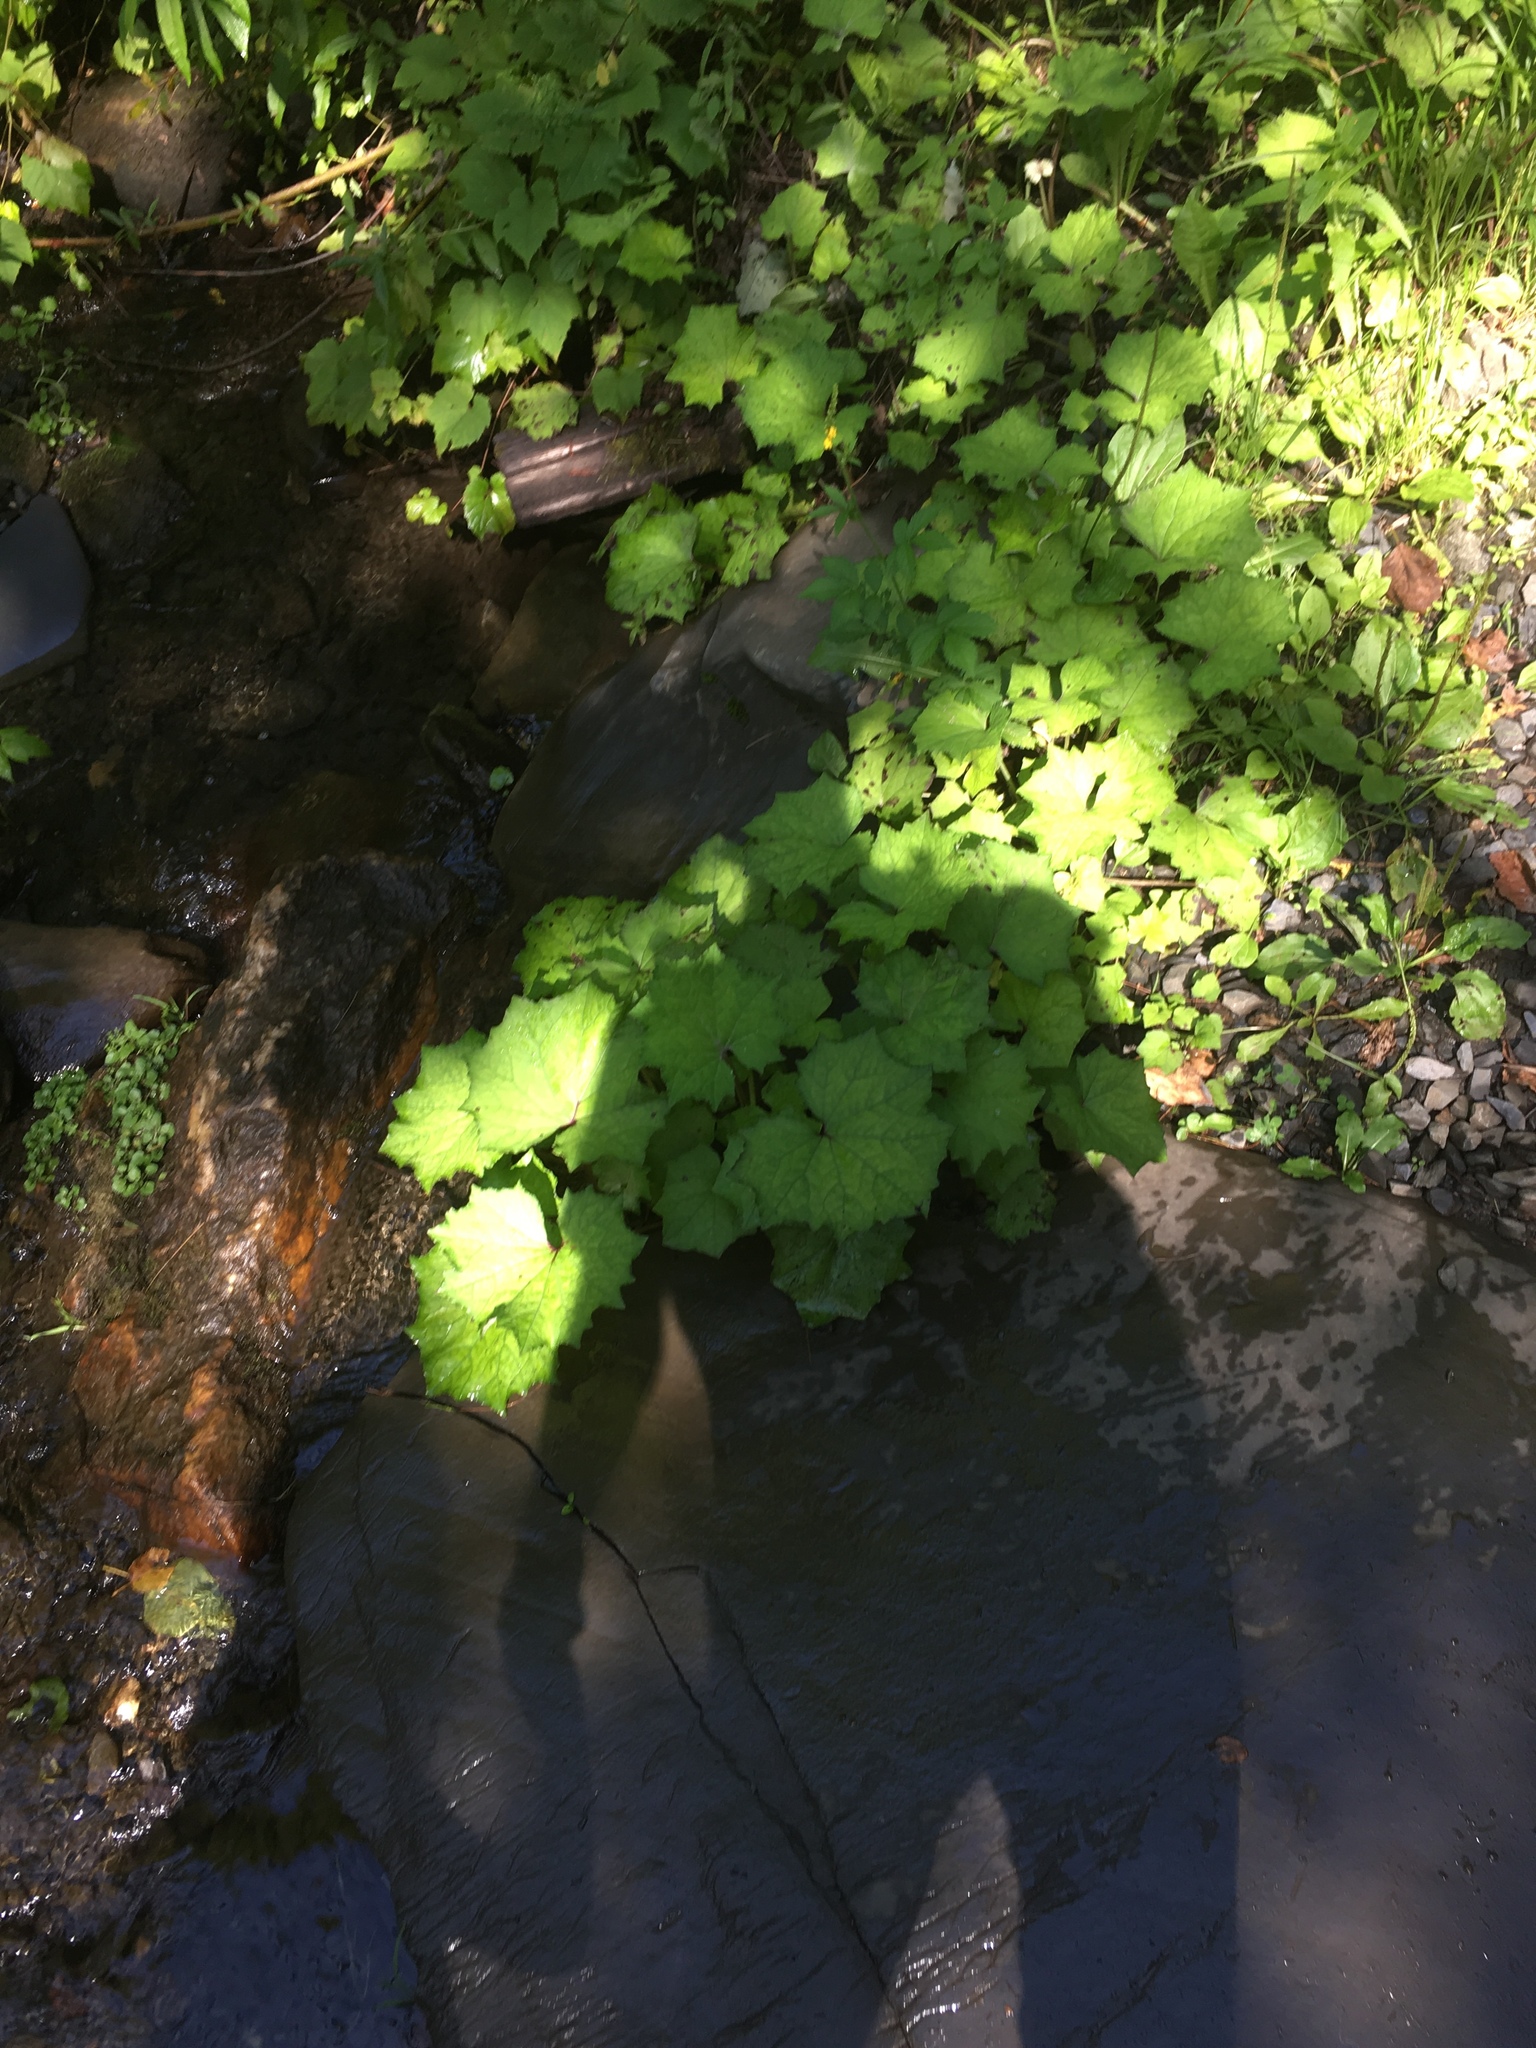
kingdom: Plantae
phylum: Tracheophyta
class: Magnoliopsida
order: Asterales
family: Asteraceae
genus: Tussilago
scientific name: Tussilago farfara
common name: Coltsfoot
